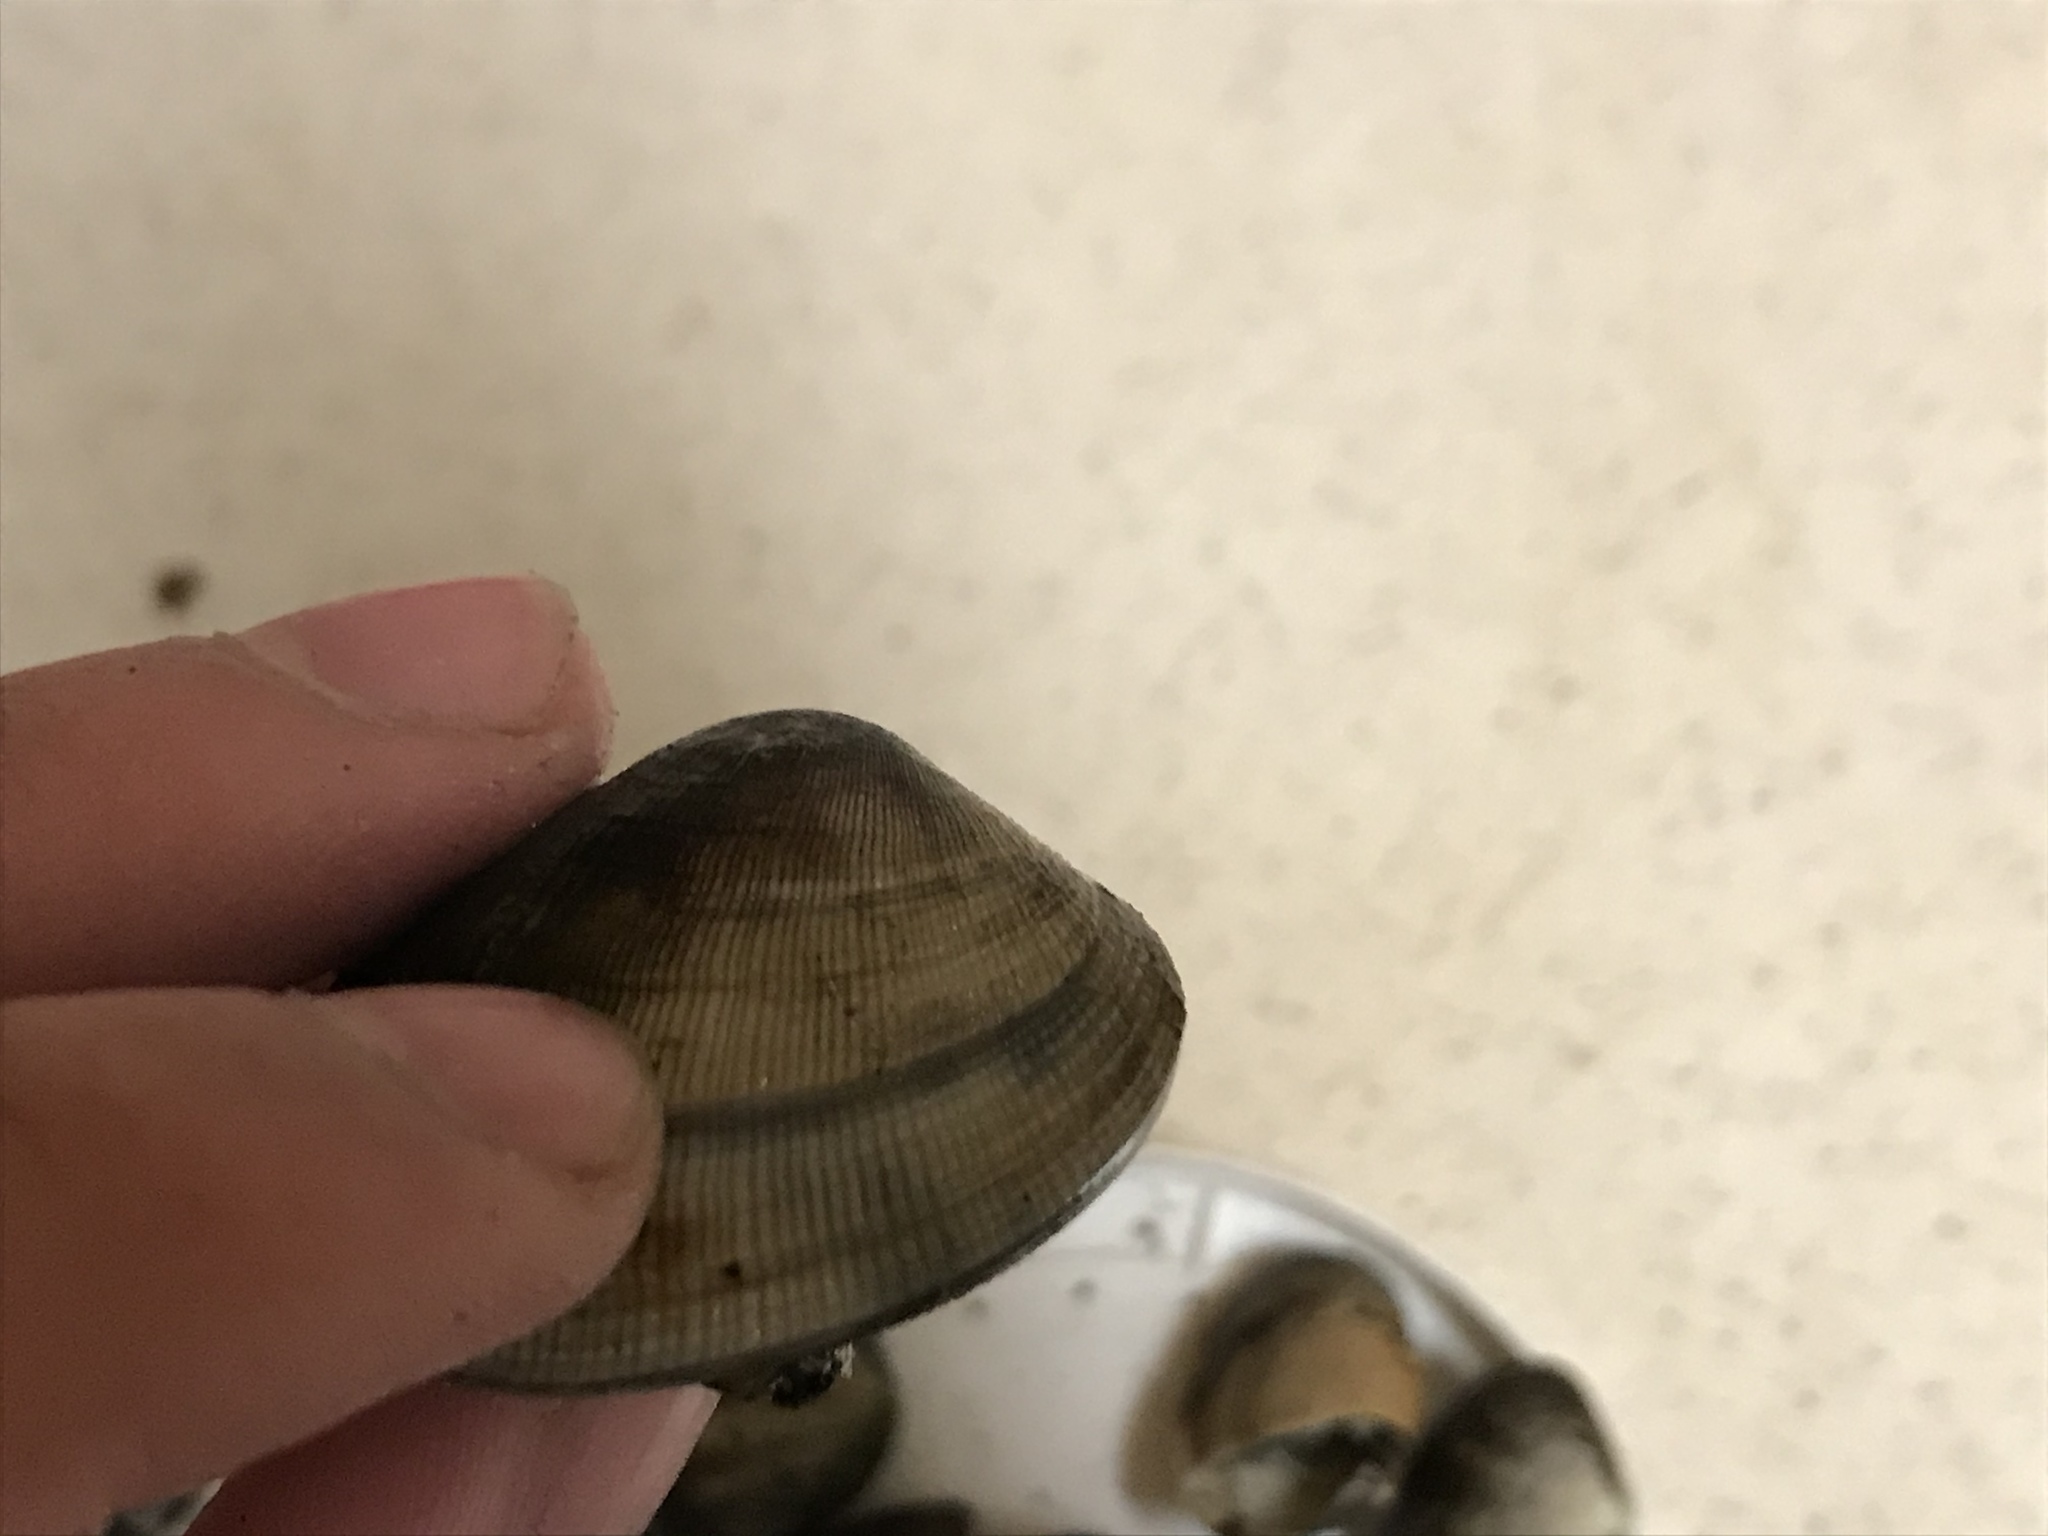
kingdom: Animalia
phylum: Mollusca
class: Bivalvia
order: Venerida
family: Veneridae
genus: Ruditapes
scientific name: Ruditapes philippinarum
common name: Manila clam
